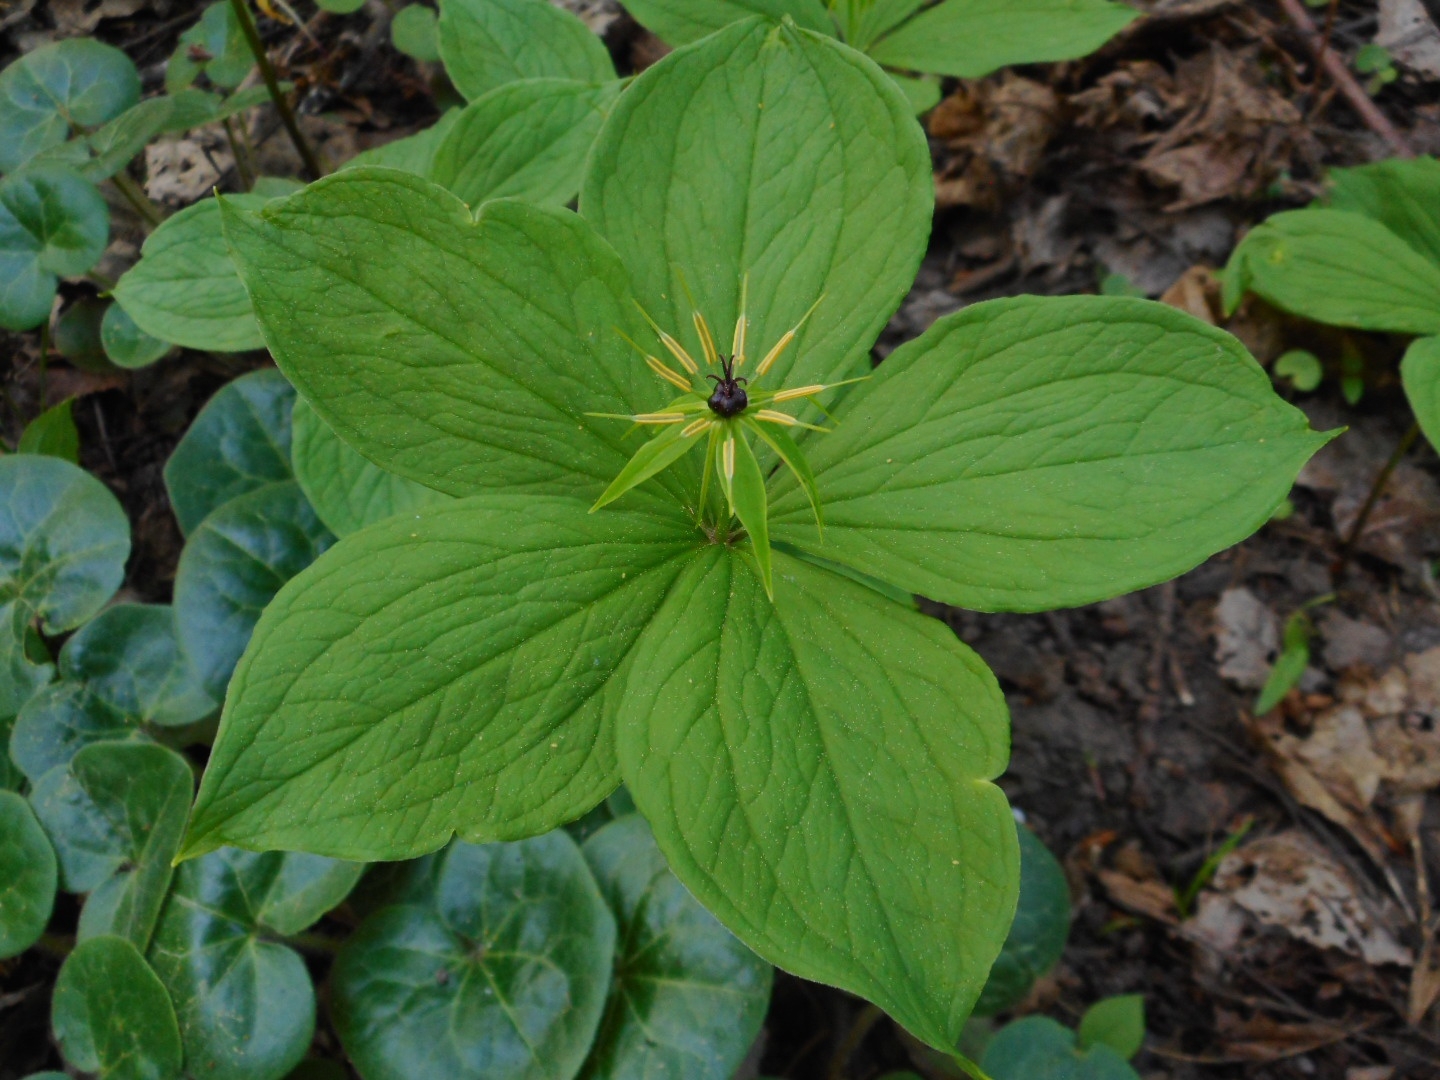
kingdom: Plantae
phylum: Tracheophyta
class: Liliopsida
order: Liliales
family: Melanthiaceae
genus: Paris
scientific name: Paris quadrifolia
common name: Herb-paris
